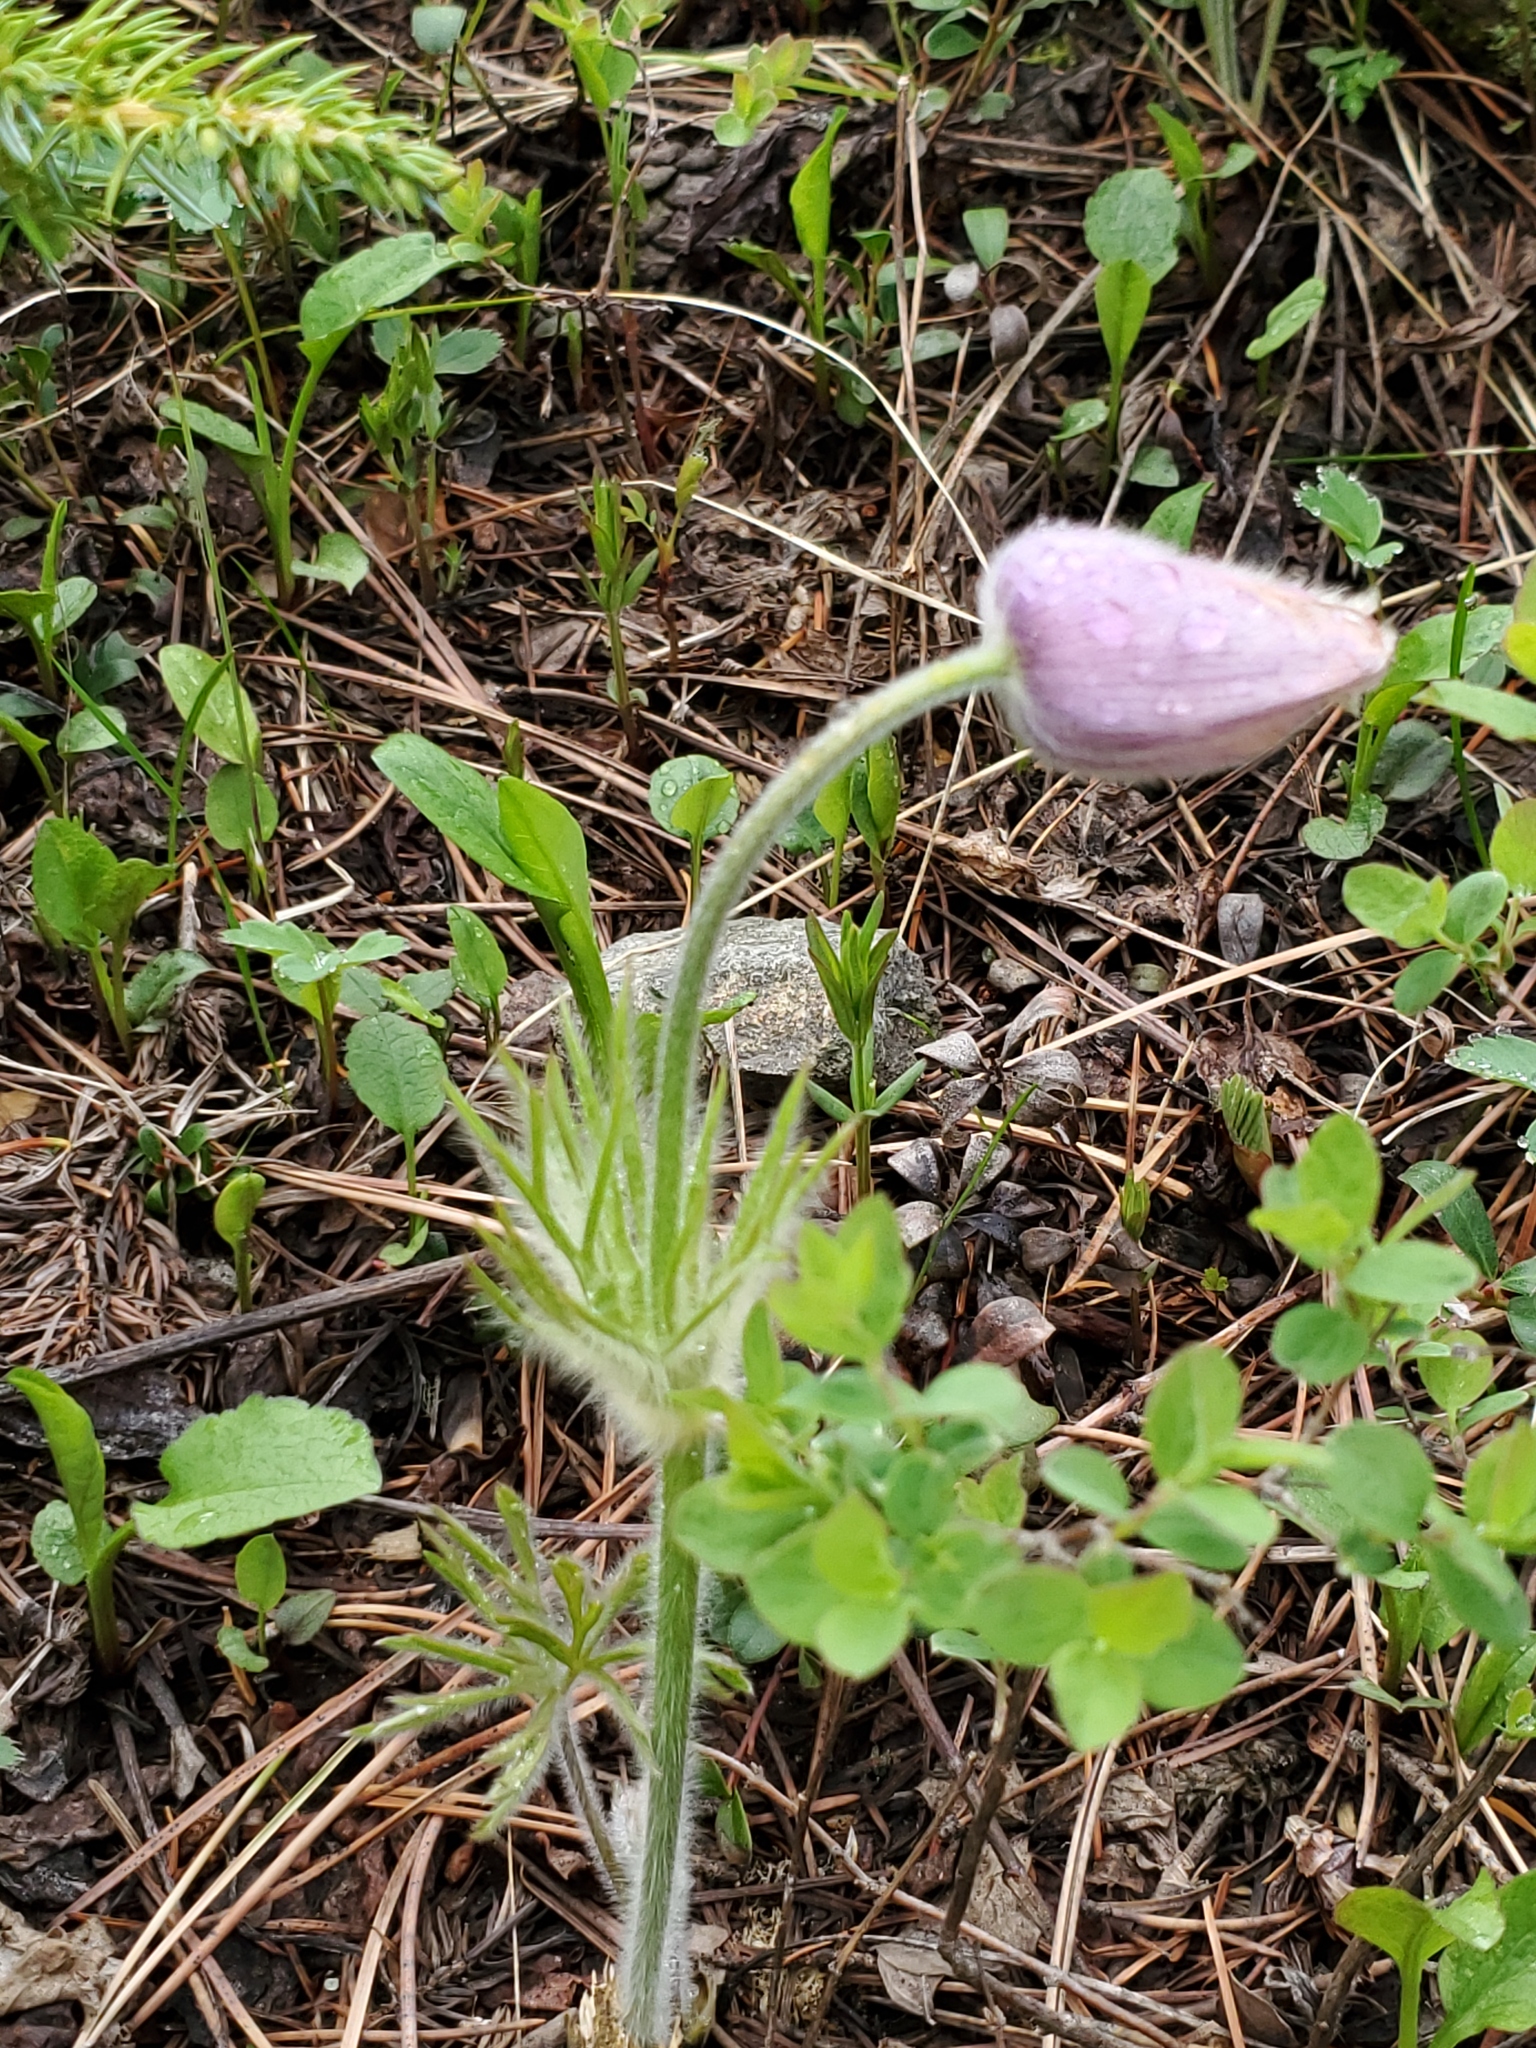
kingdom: Plantae
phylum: Tracheophyta
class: Magnoliopsida
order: Ranunculales
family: Ranunculaceae
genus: Pulsatilla
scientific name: Pulsatilla nuttalliana
